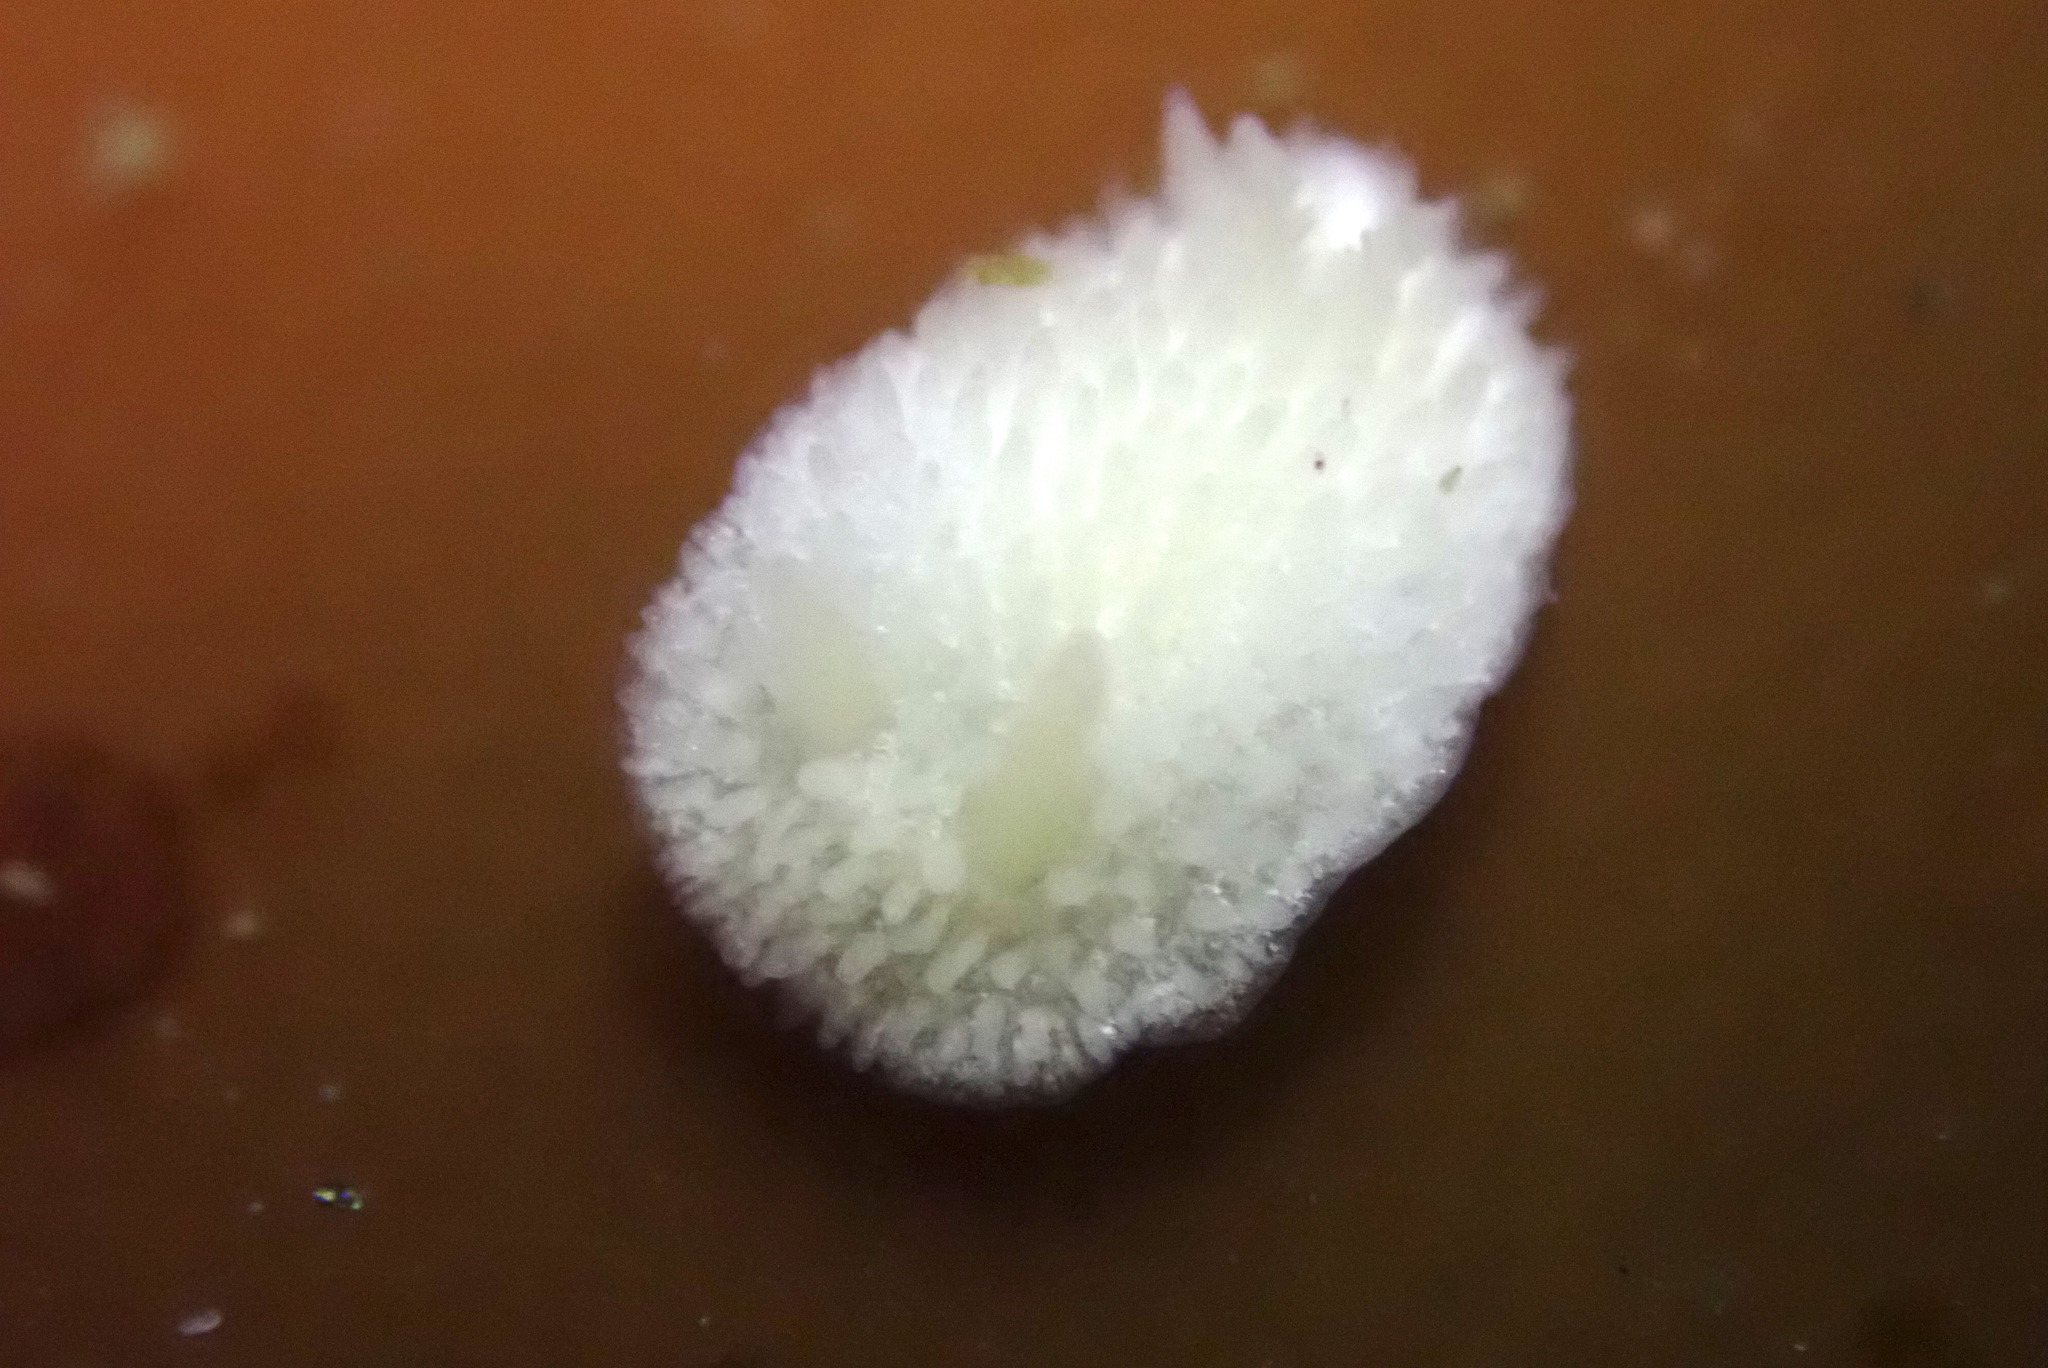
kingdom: Animalia
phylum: Mollusca
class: Gastropoda
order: Nudibranchia
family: Calycidorididae
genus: Diaphorodoris
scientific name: Diaphorodoris lirulatocauda
